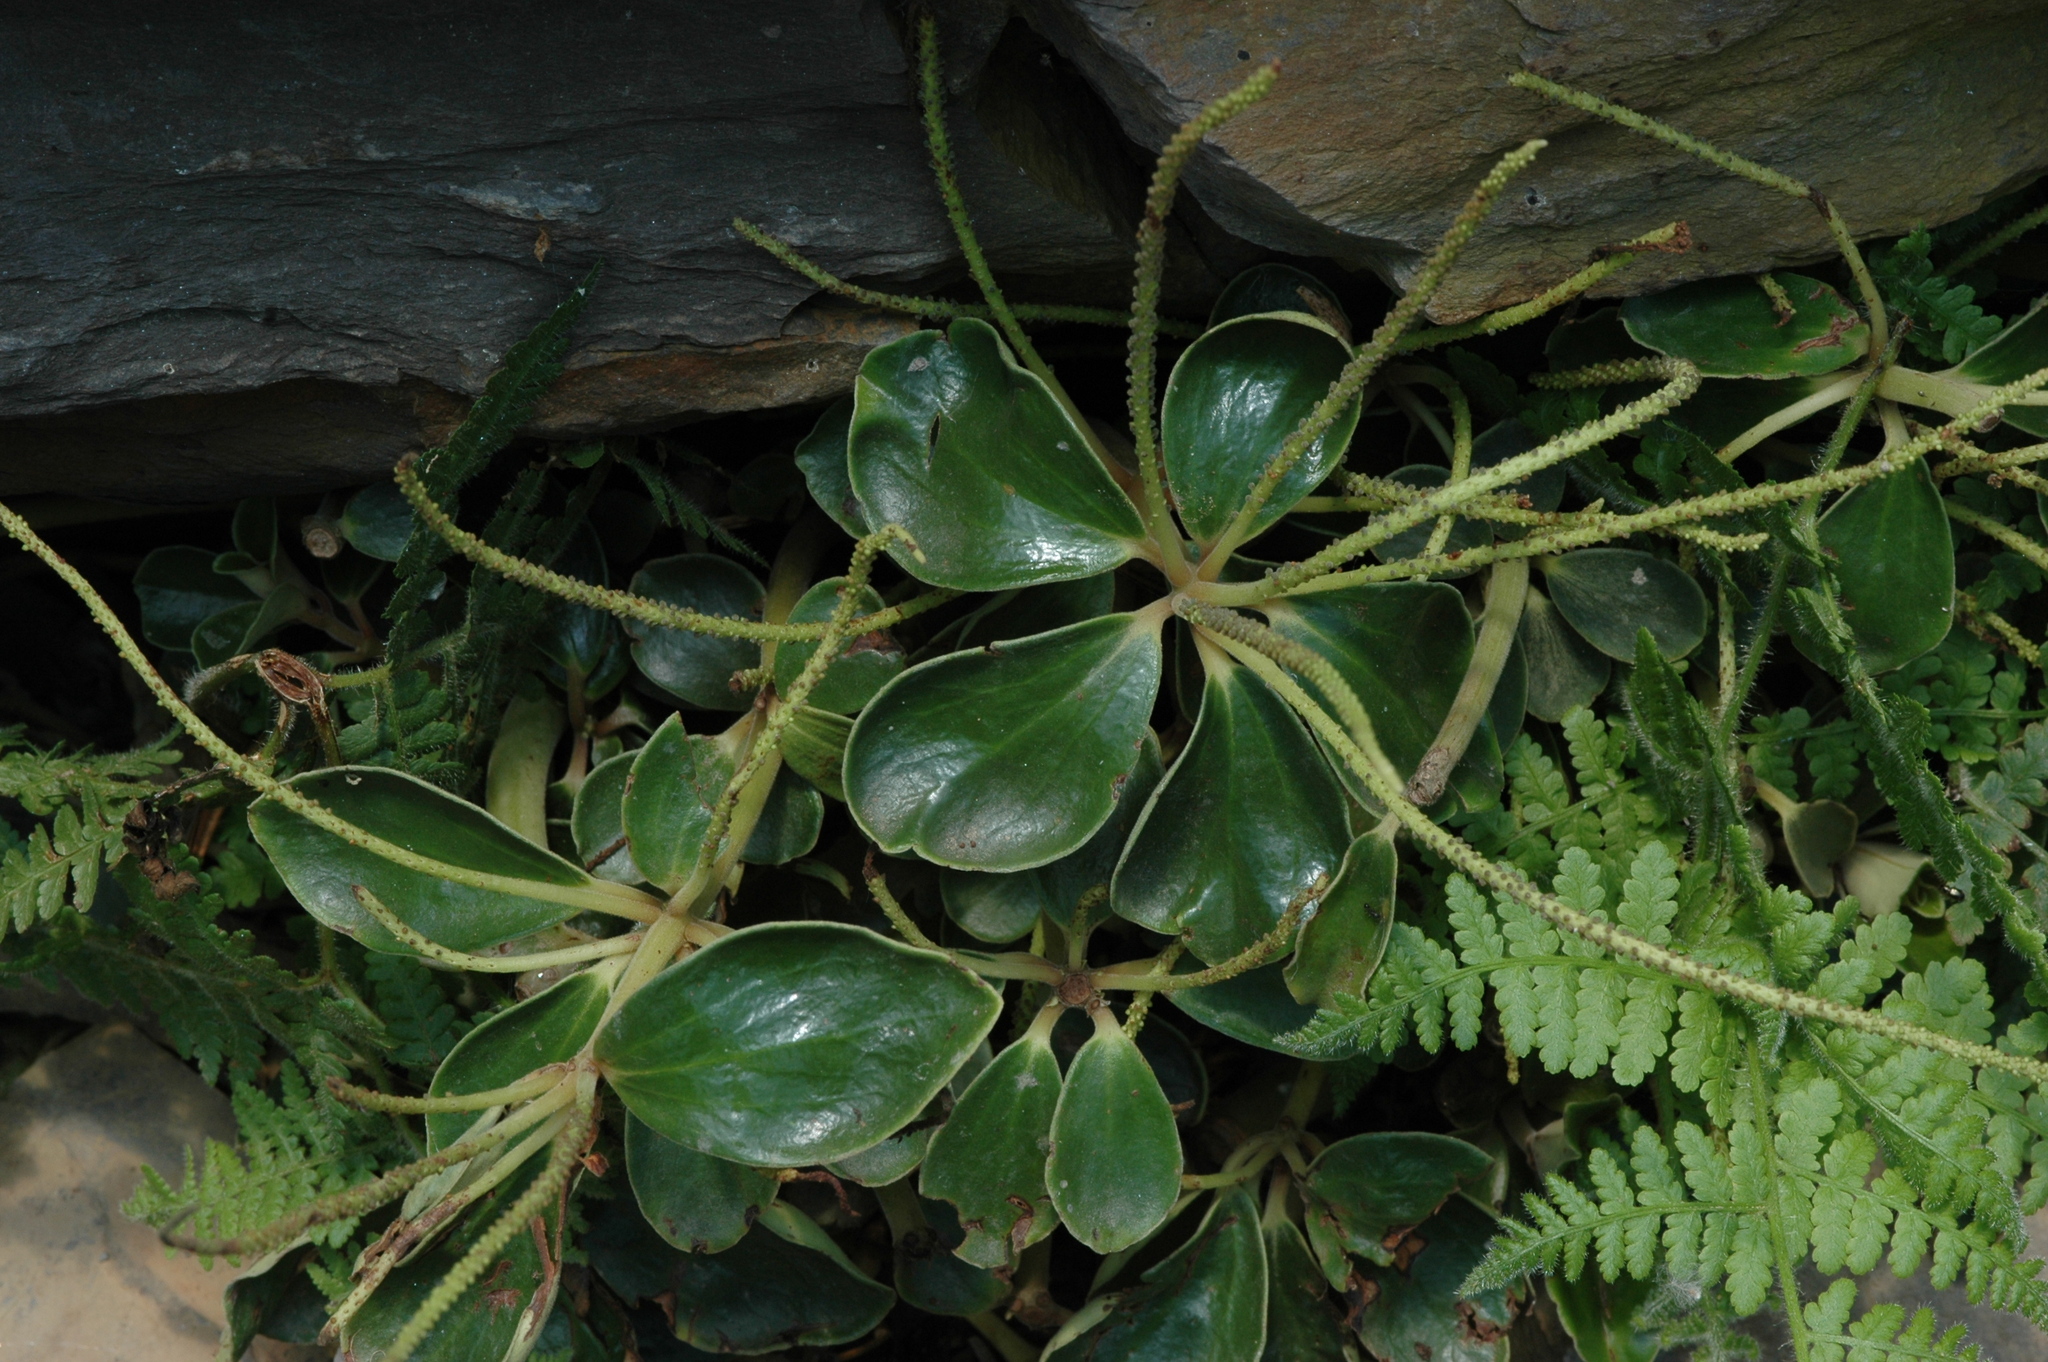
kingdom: Plantae
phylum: Tracheophyta
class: Magnoliopsida
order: Piperales
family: Piperaceae
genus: Peperomia
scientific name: Peperomia japonica
